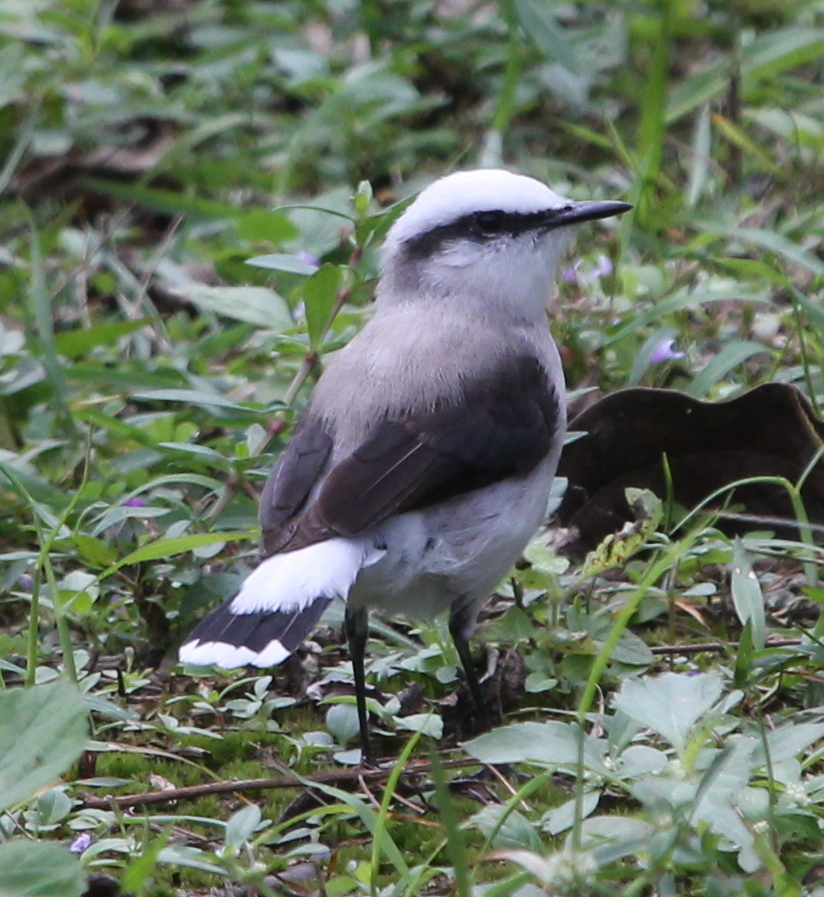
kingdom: Animalia
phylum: Chordata
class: Aves
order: Passeriformes
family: Tyrannidae
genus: Fluvicola
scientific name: Fluvicola nengeta
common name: Masked water tyrant
